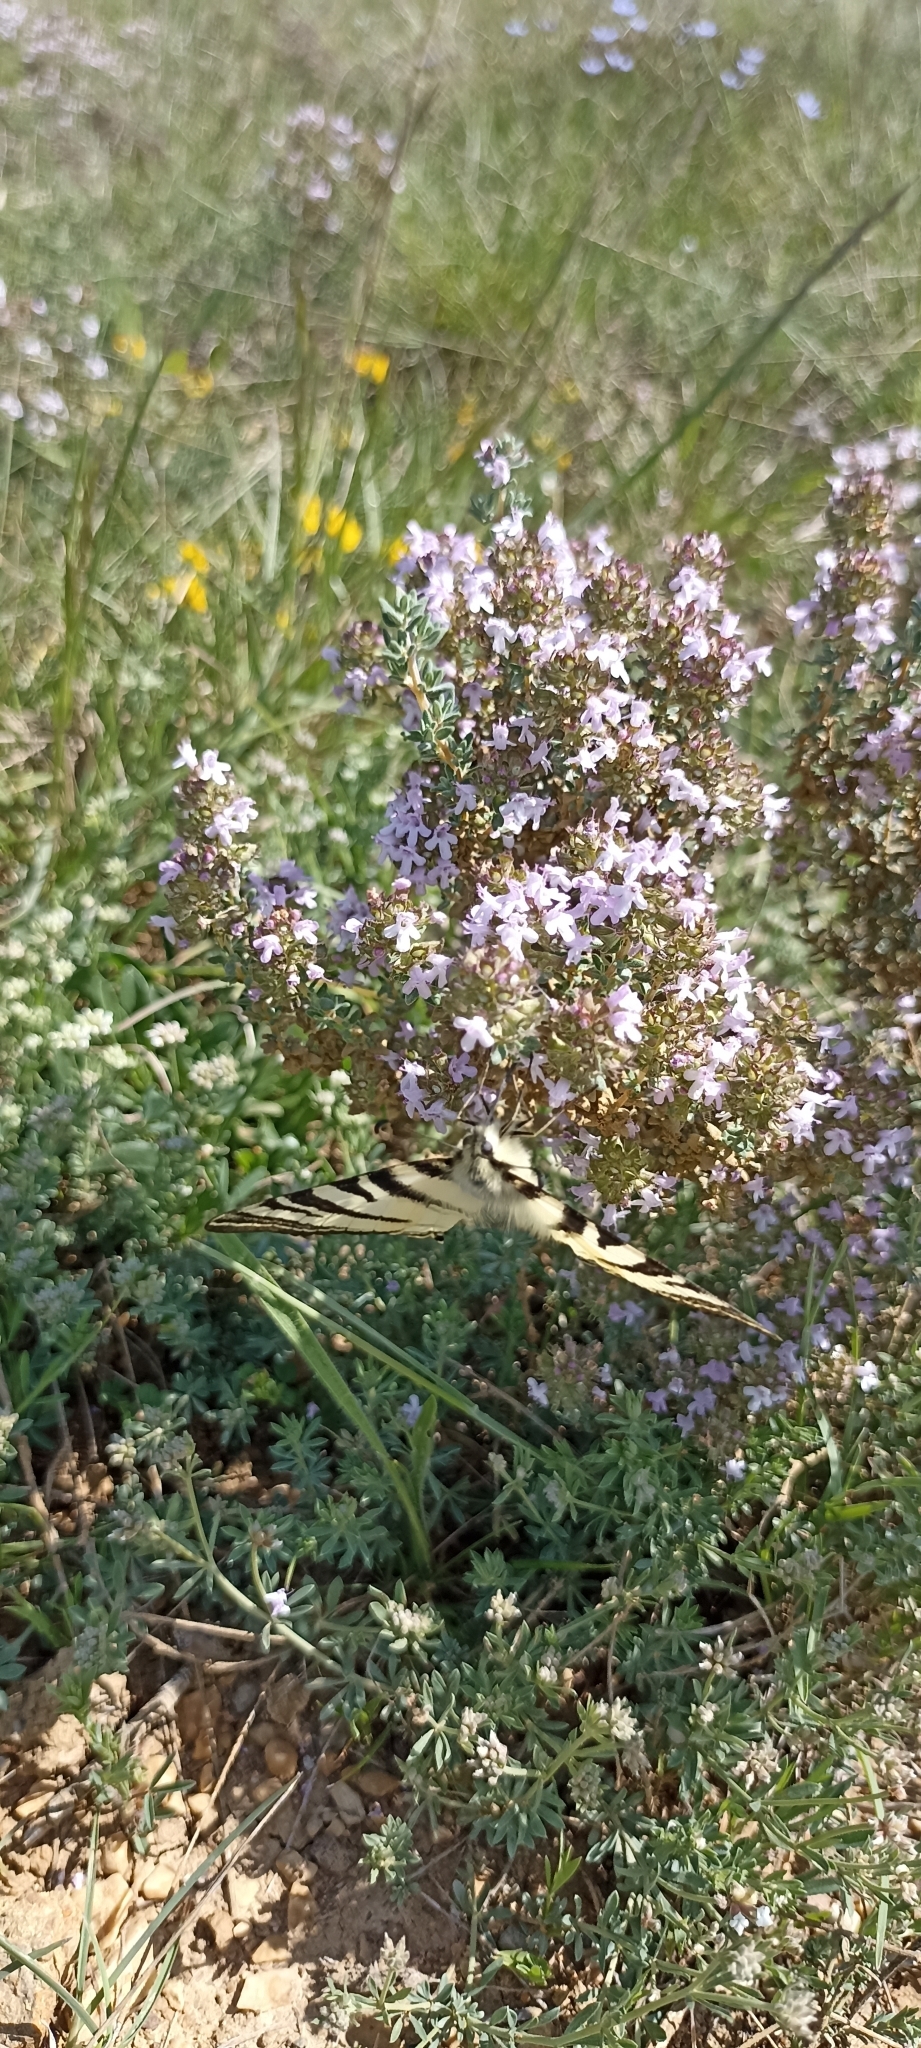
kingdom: Animalia
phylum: Arthropoda
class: Insecta
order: Lepidoptera
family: Papilionidae
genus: Iphiclides
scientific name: Iphiclides podalirius
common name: Scarce swallowtail
